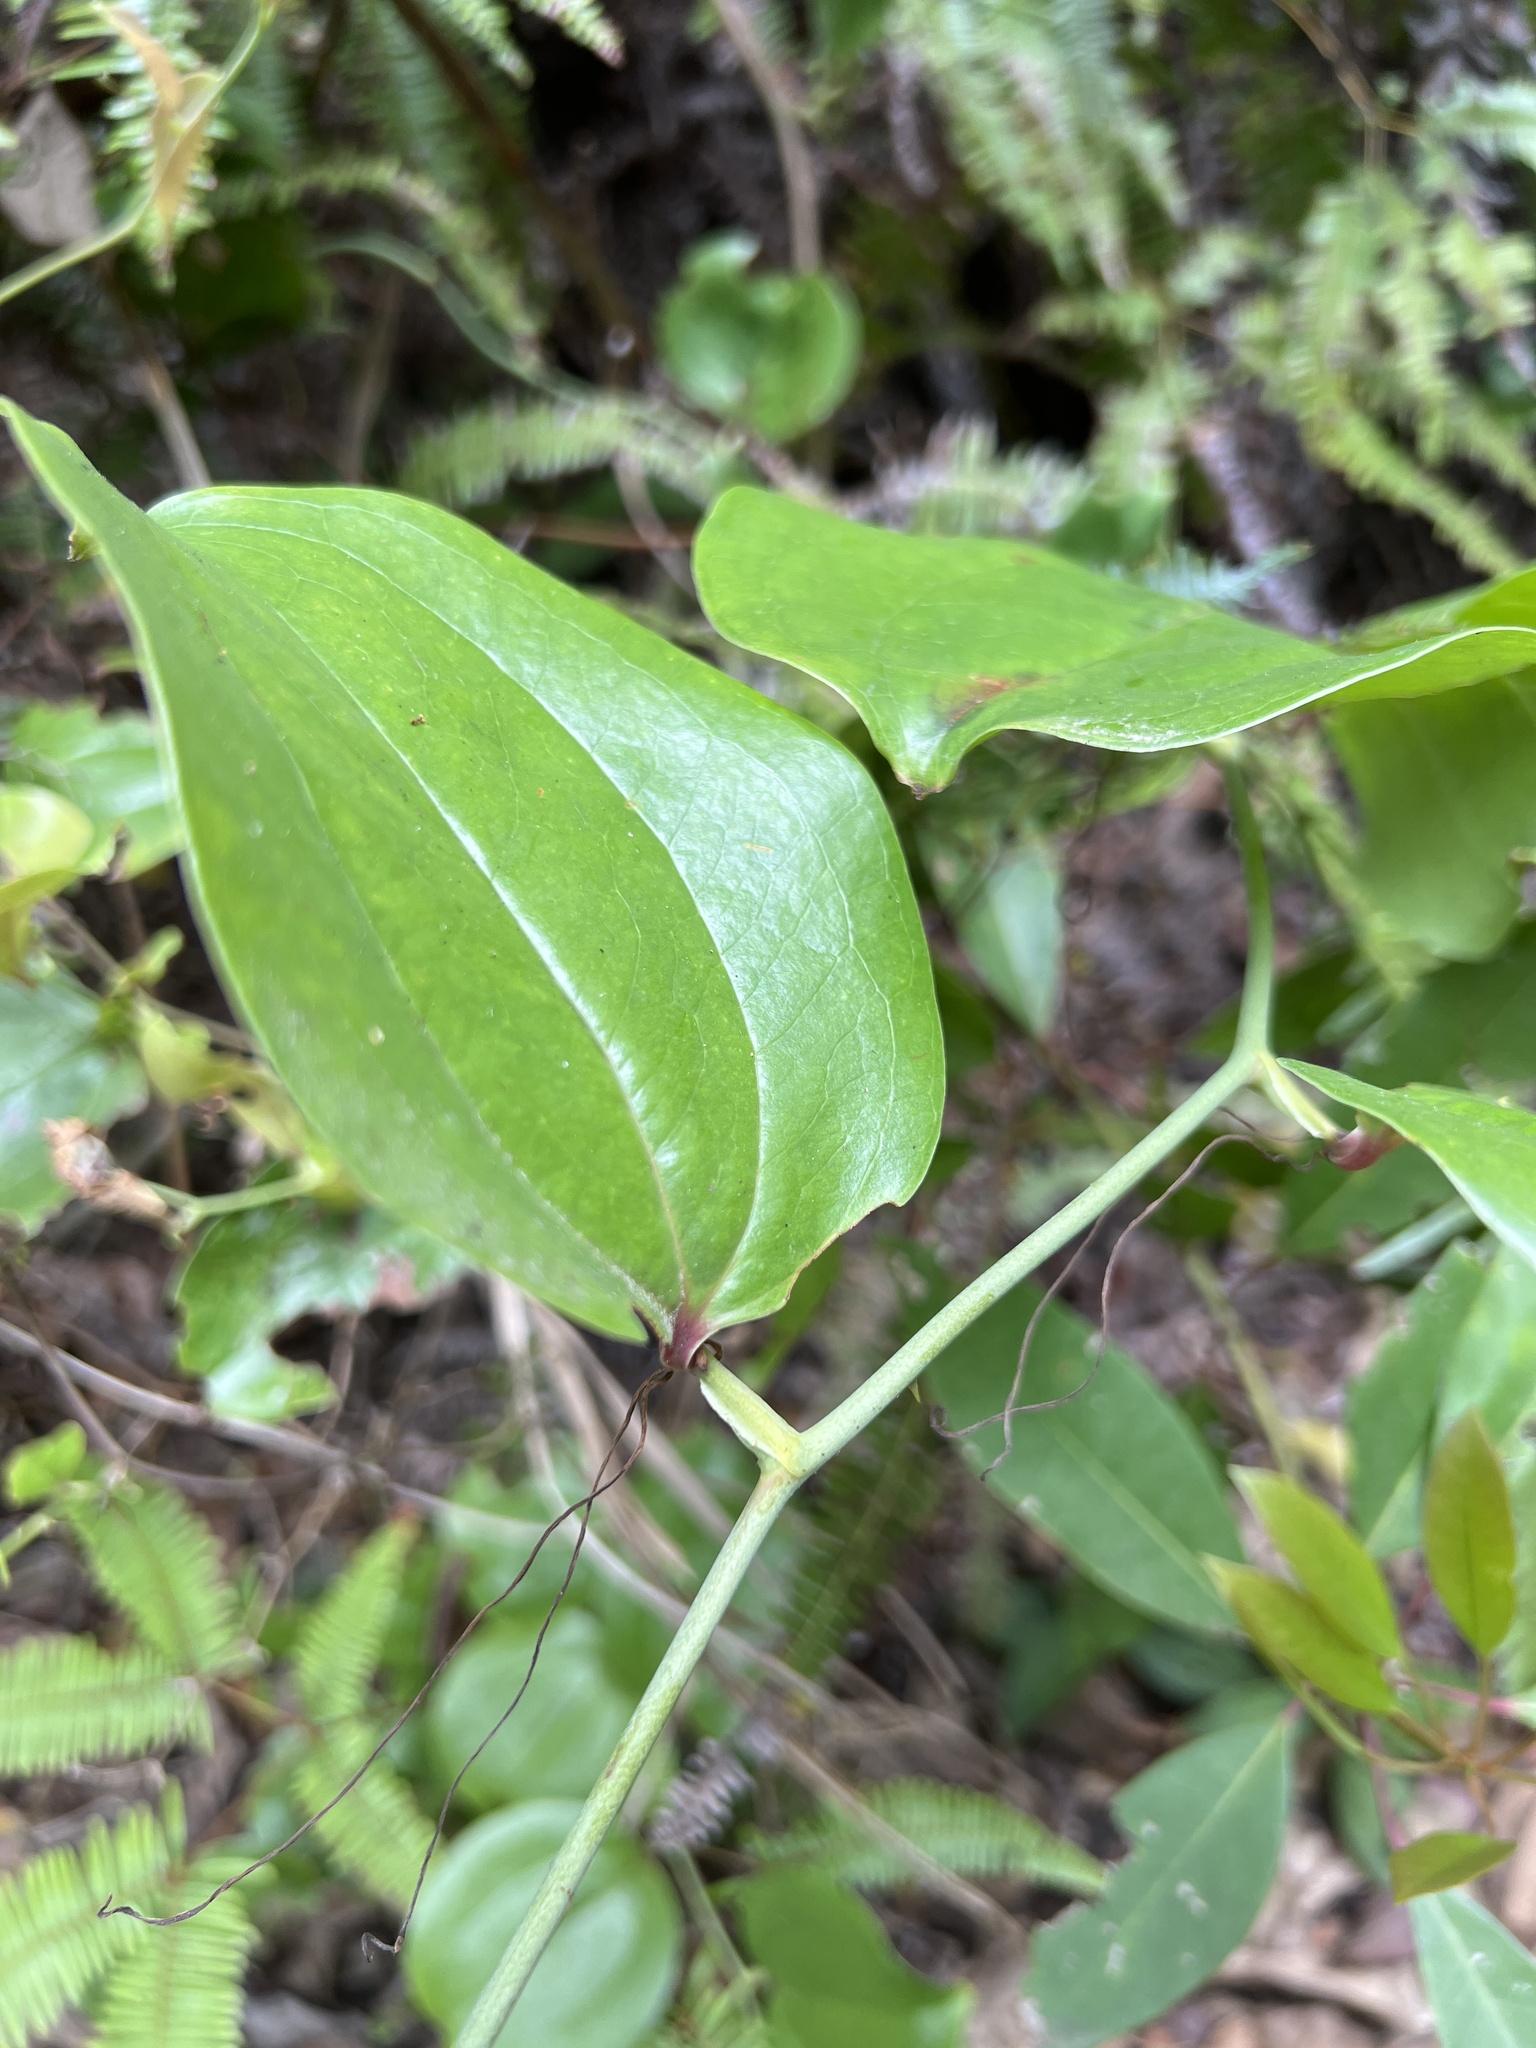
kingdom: Plantae
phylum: Tracheophyta
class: Liliopsida
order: Liliales
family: Smilacaceae
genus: Smilax
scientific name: Smilax china
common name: Chinaroot
